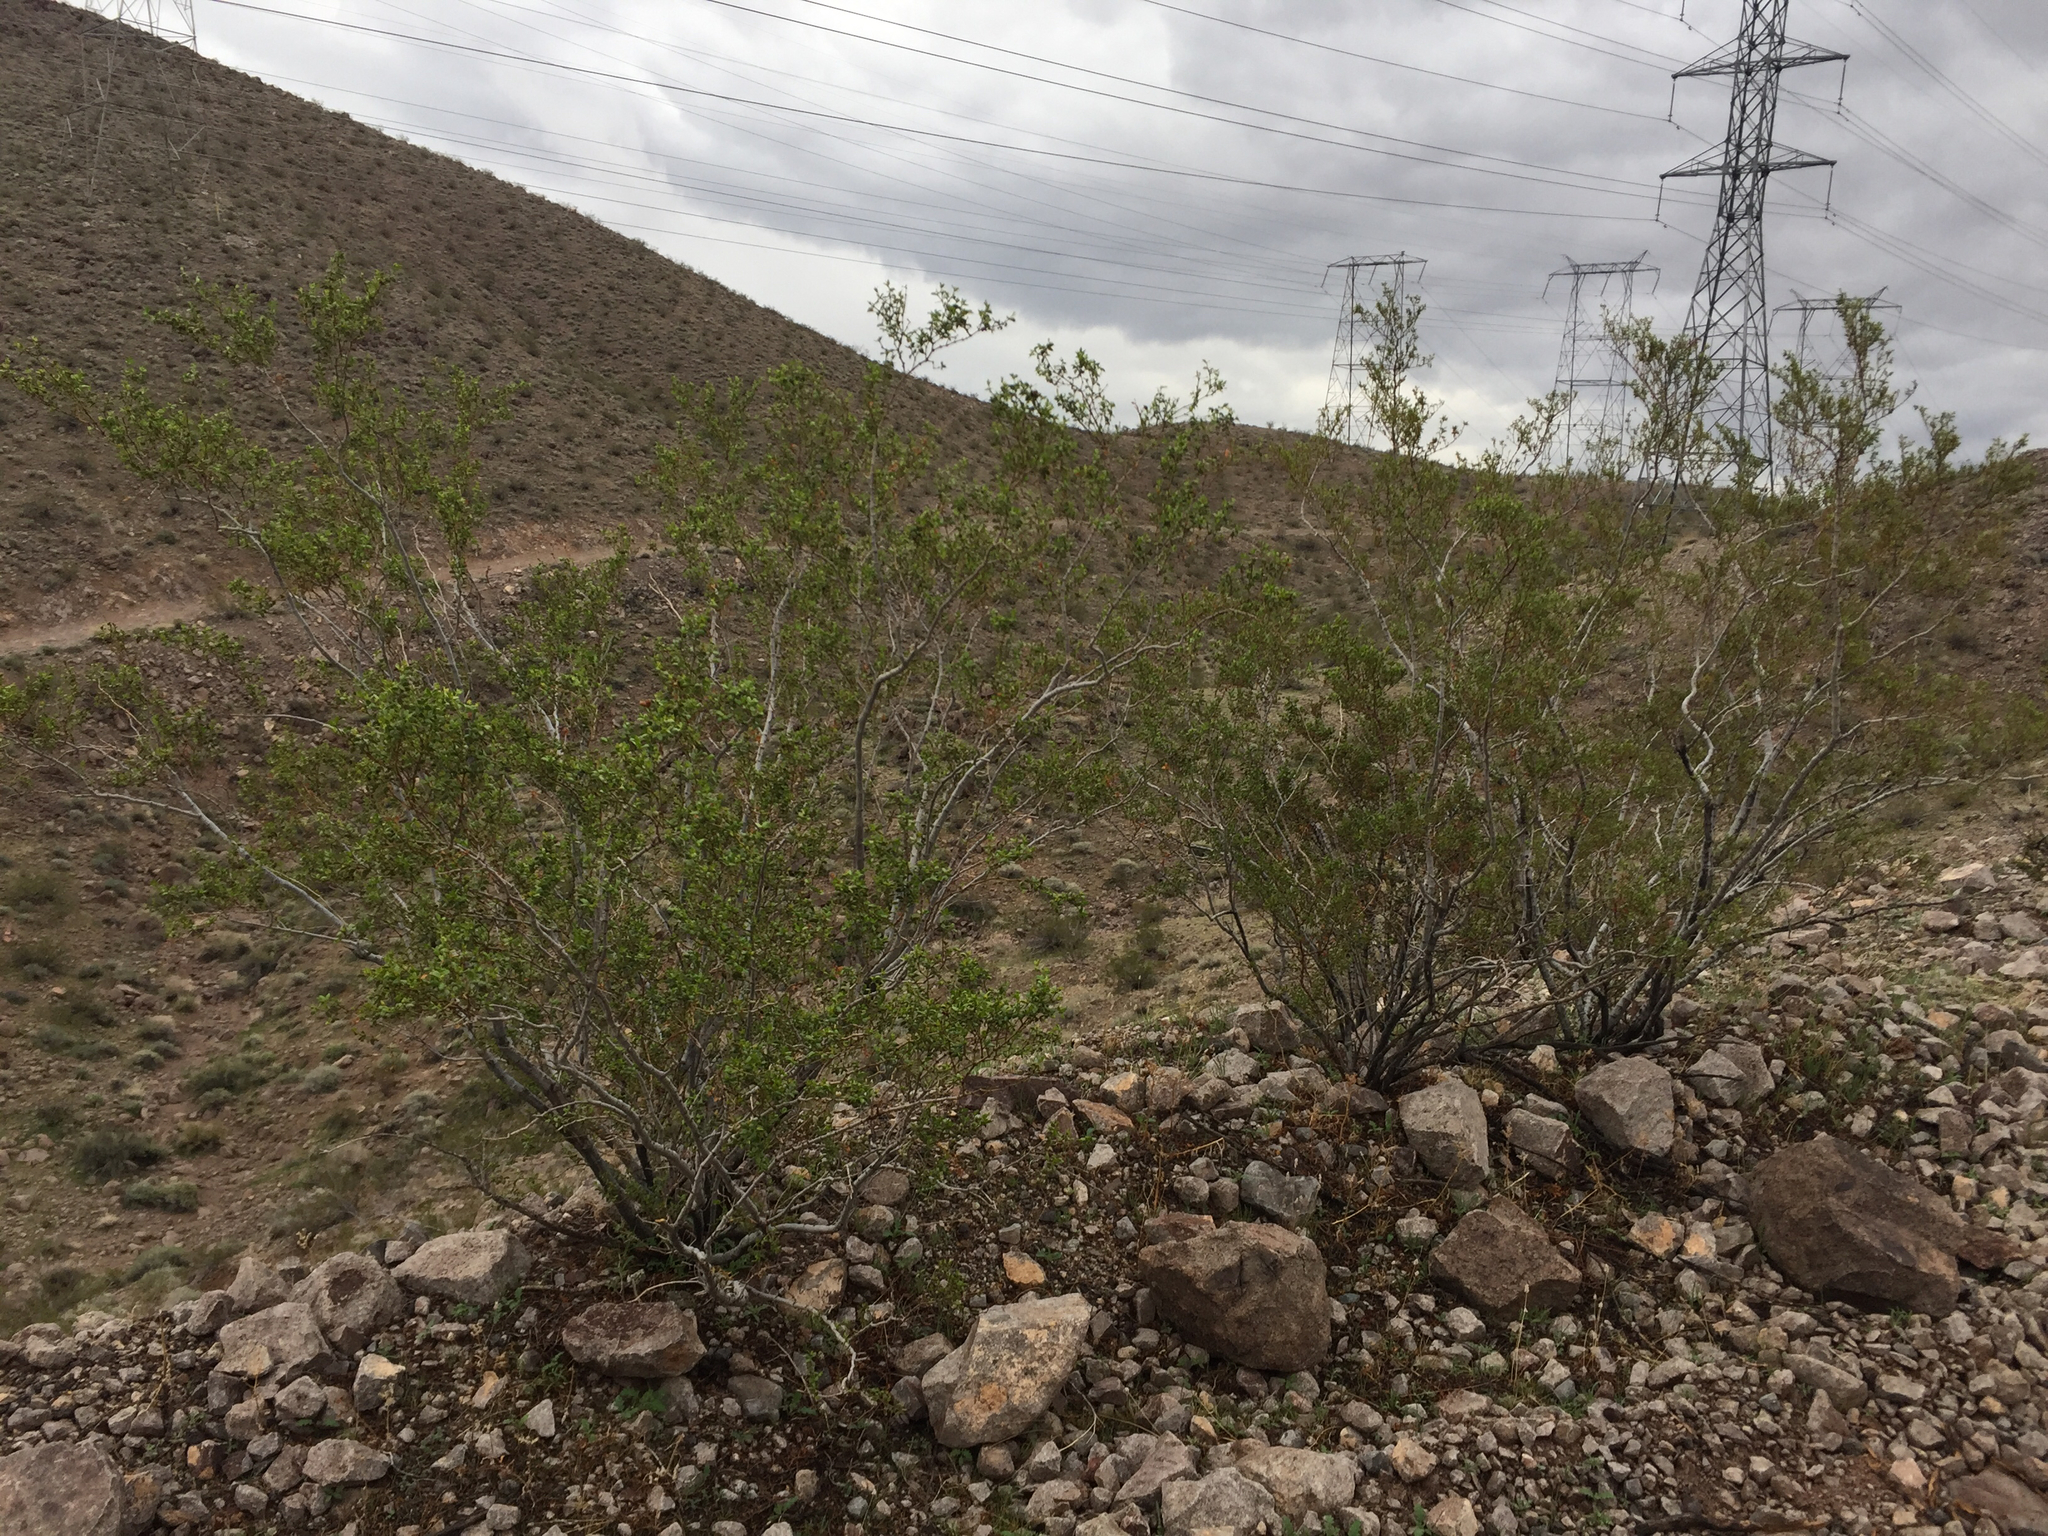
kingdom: Plantae
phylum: Tracheophyta
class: Magnoliopsida
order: Zygophyllales
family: Zygophyllaceae
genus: Larrea
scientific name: Larrea tridentata
